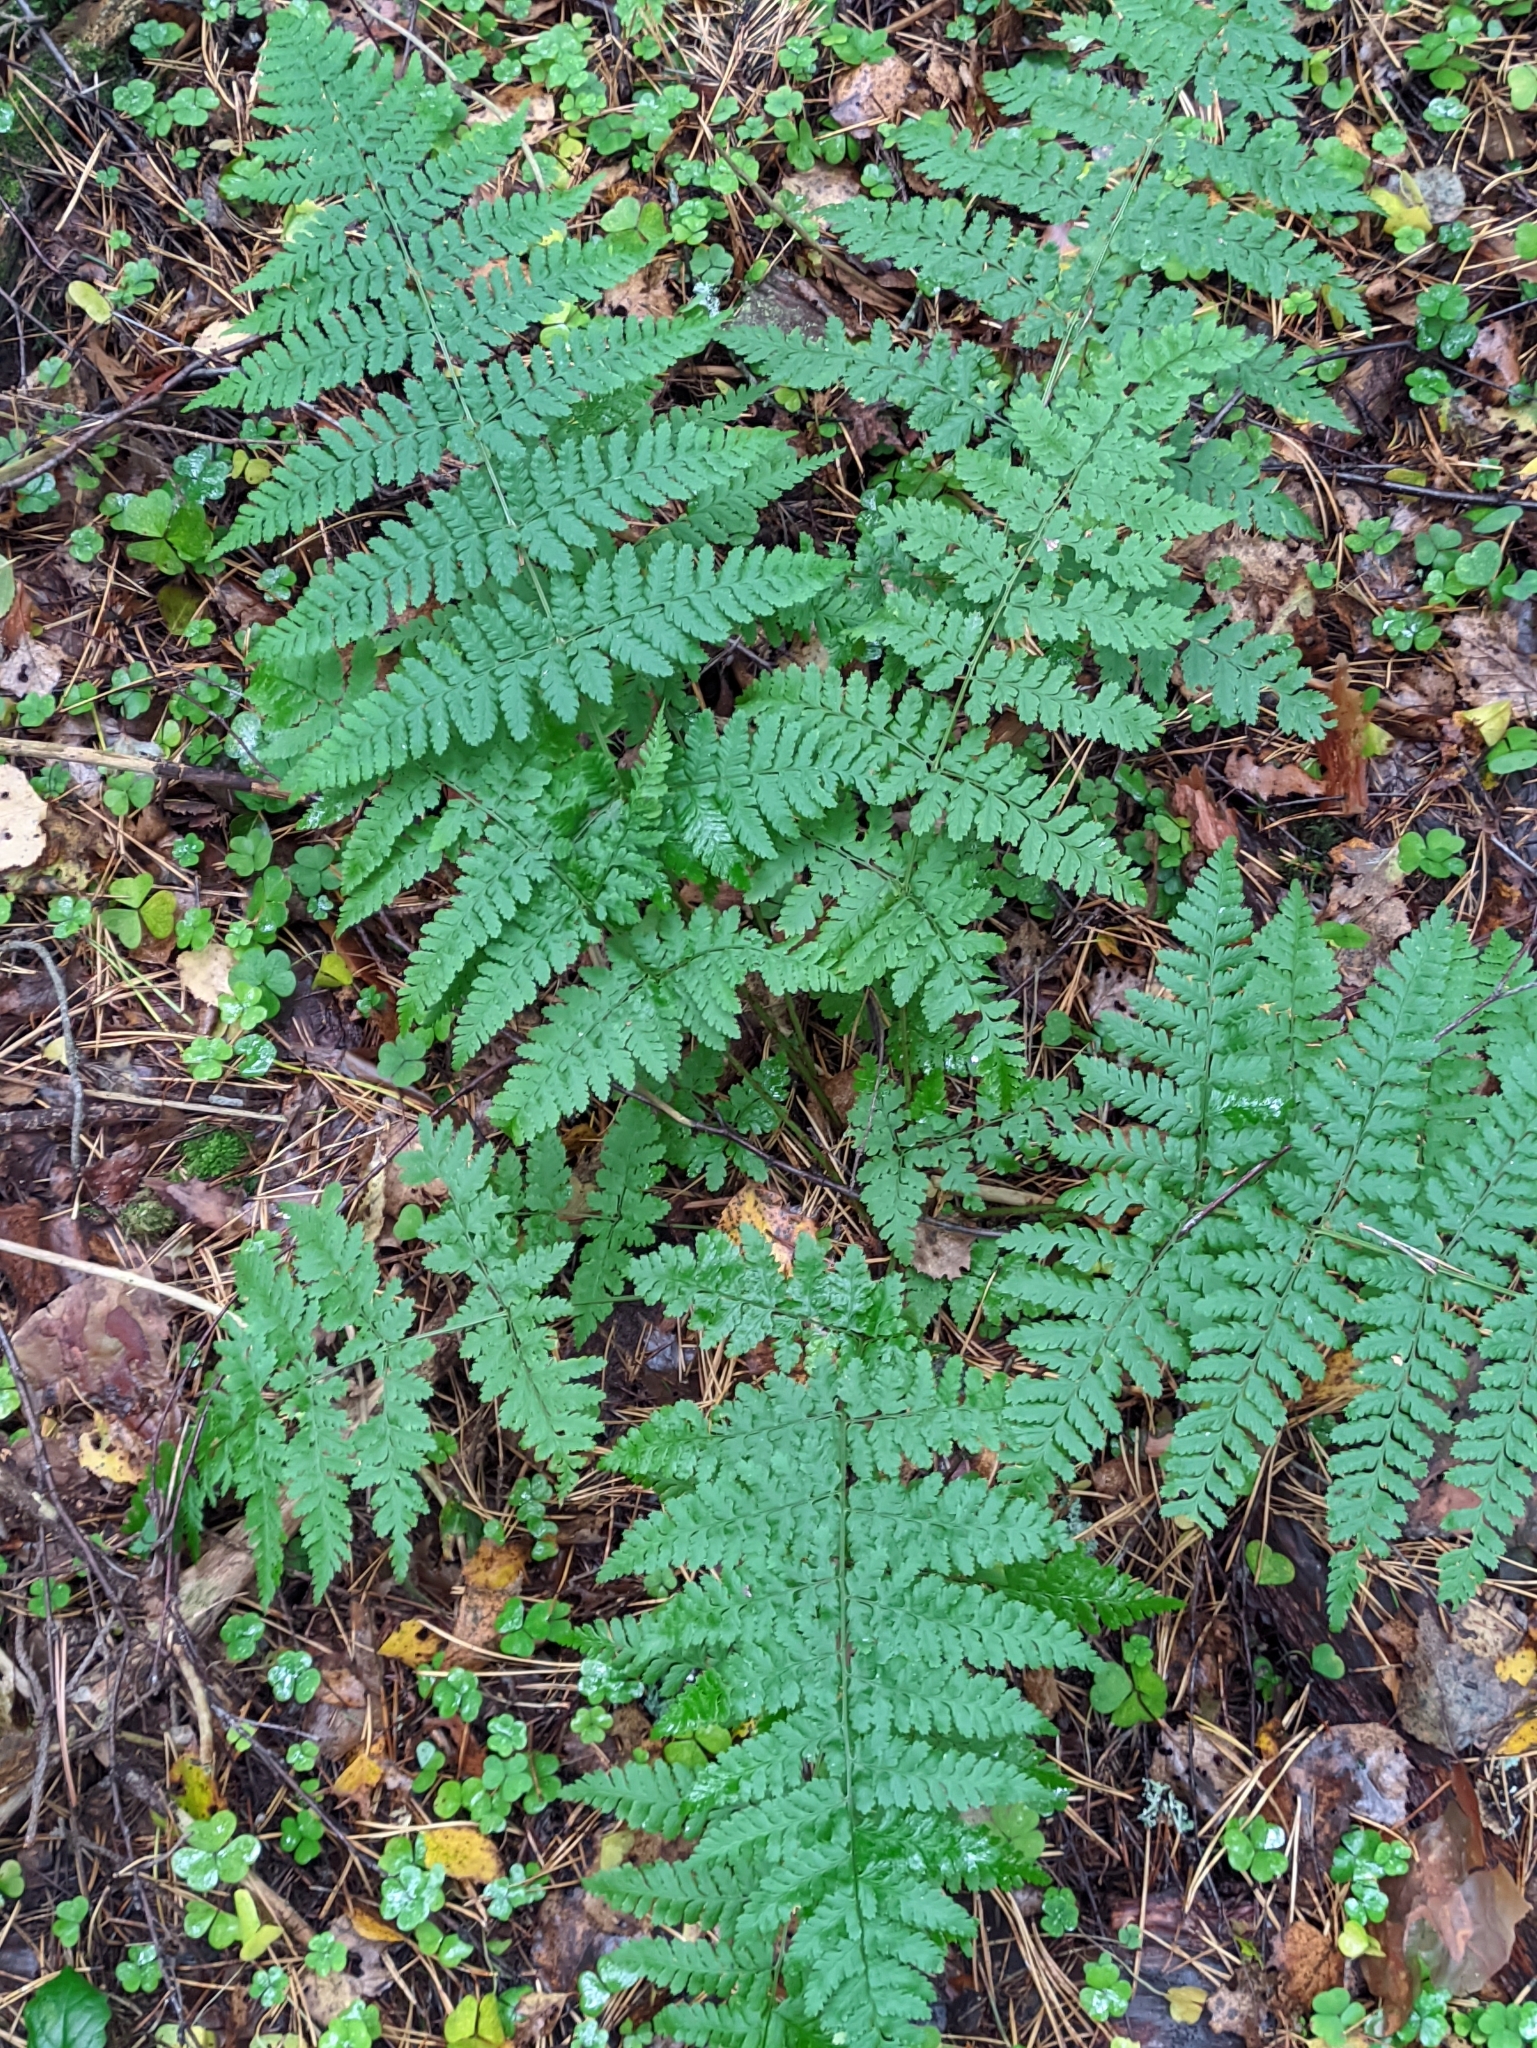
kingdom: Plantae
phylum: Tracheophyta
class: Polypodiopsida
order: Polypodiales
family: Dryopteridaceae
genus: Dryopteris
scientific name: Dryopteris carthusiana
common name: Narrow buckler-fern
